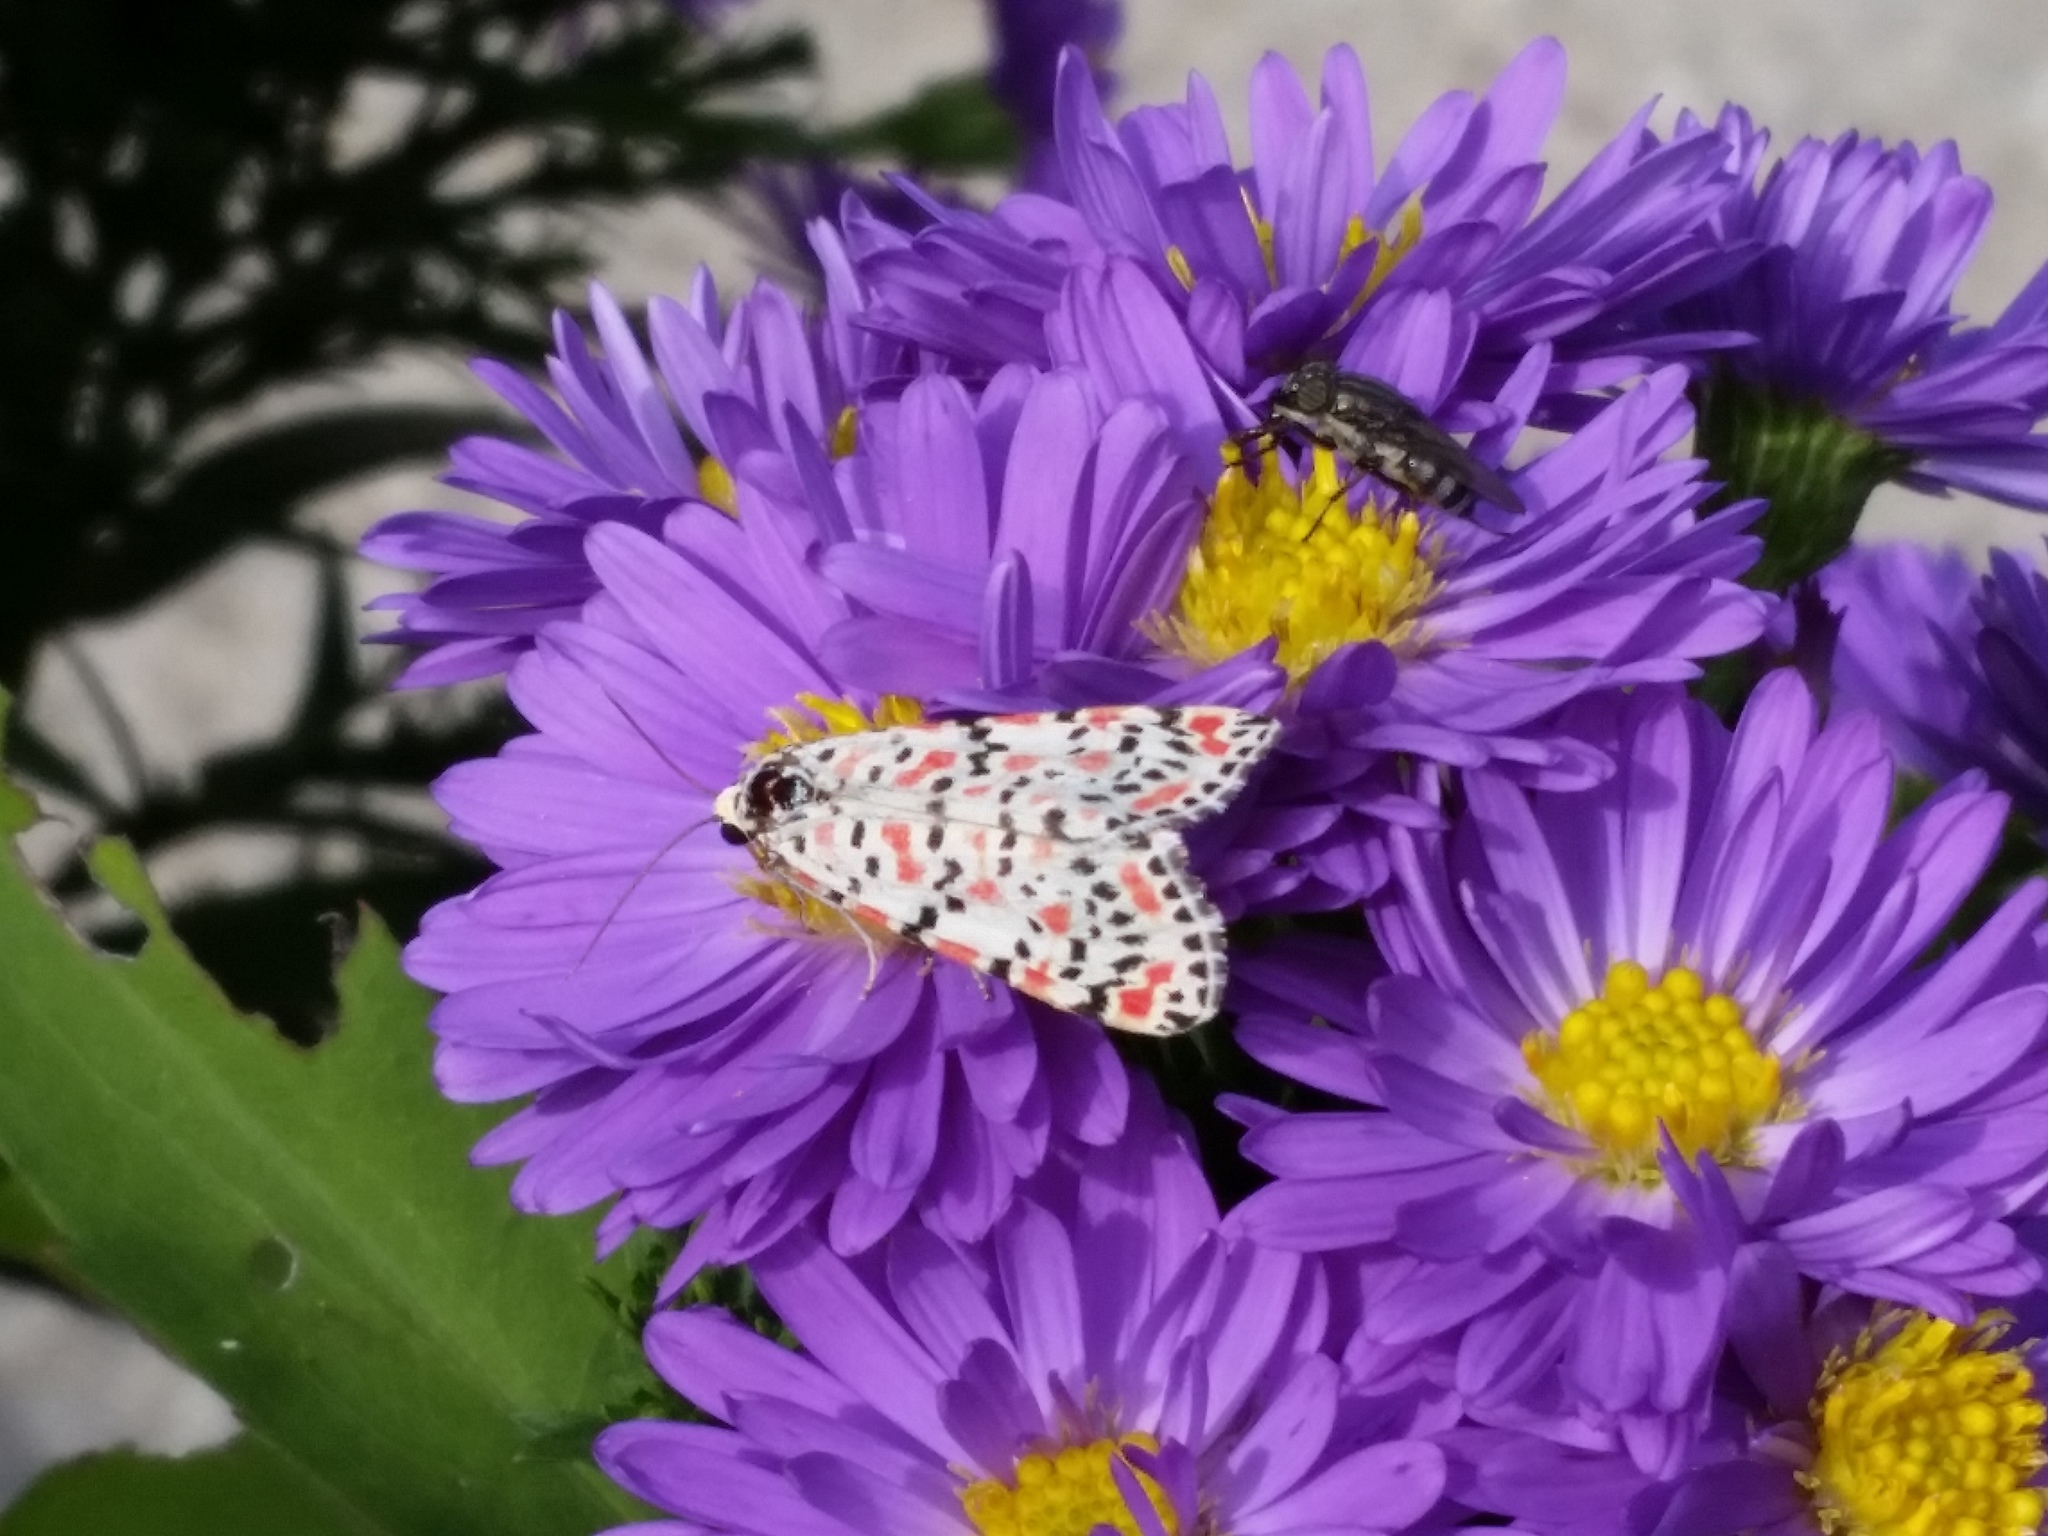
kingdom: Animalia
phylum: Arthropoda
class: Insecta
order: Lepidoptera
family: Erebidae
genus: Utetheisa
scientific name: Utetheisa pulchella
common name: Crimson speckled
